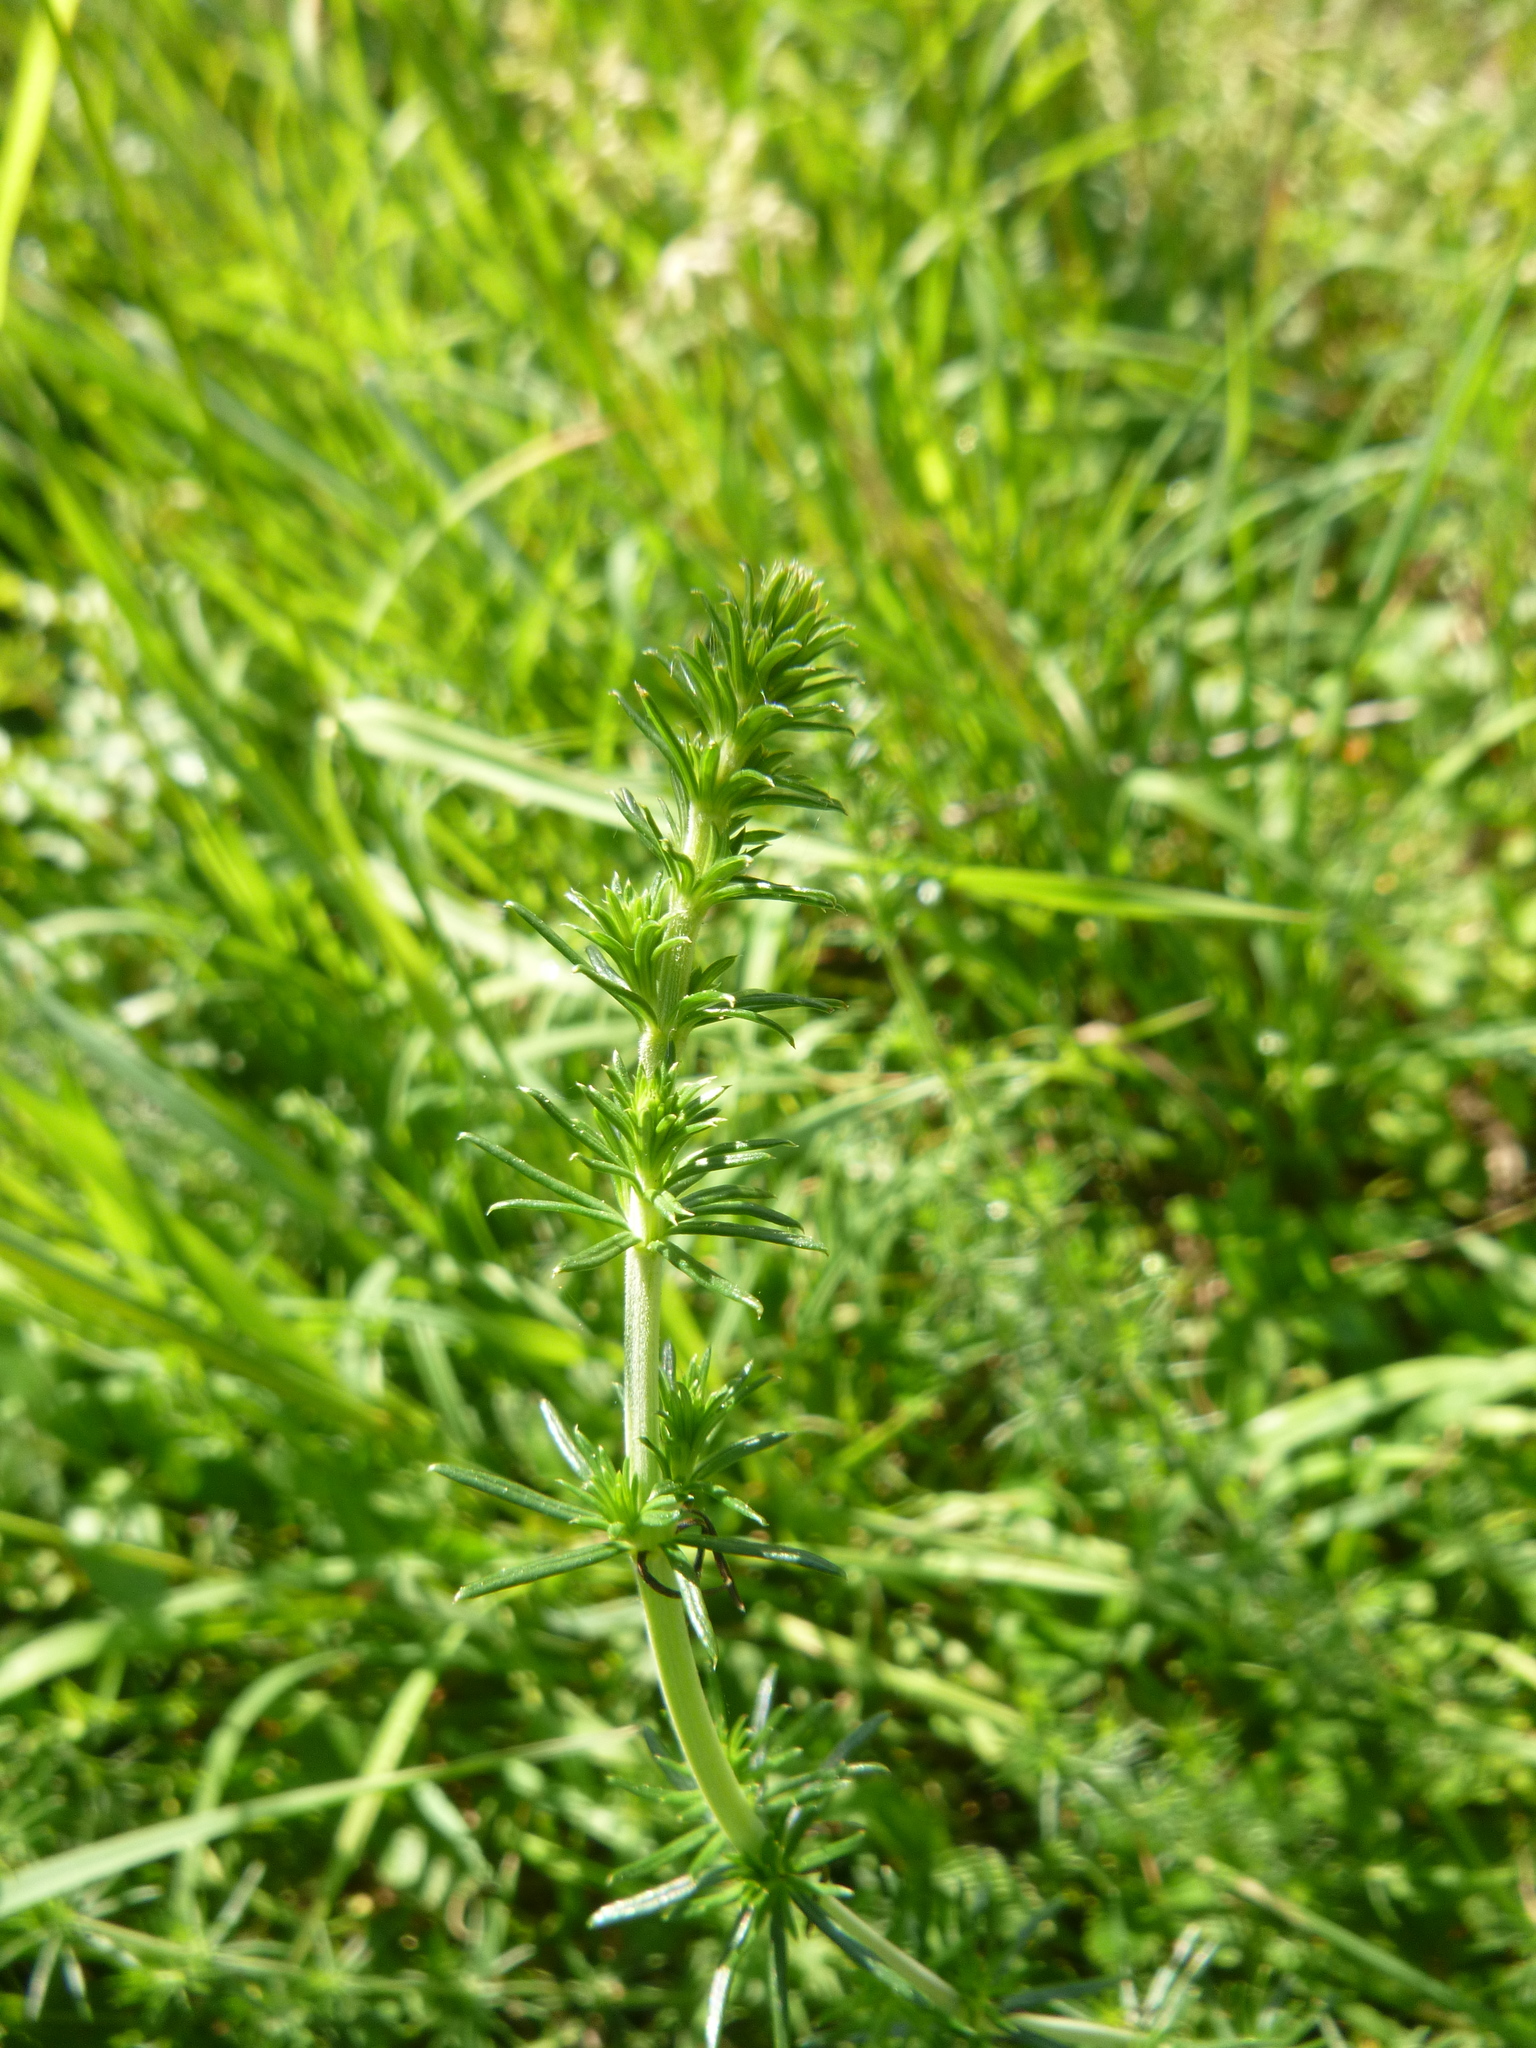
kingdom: Plantae
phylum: Tracheophyta
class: Magnoliopsida
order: Gentianales
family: Rubiaceae
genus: Galium
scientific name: Galium verum
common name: Lady's bedstraw
